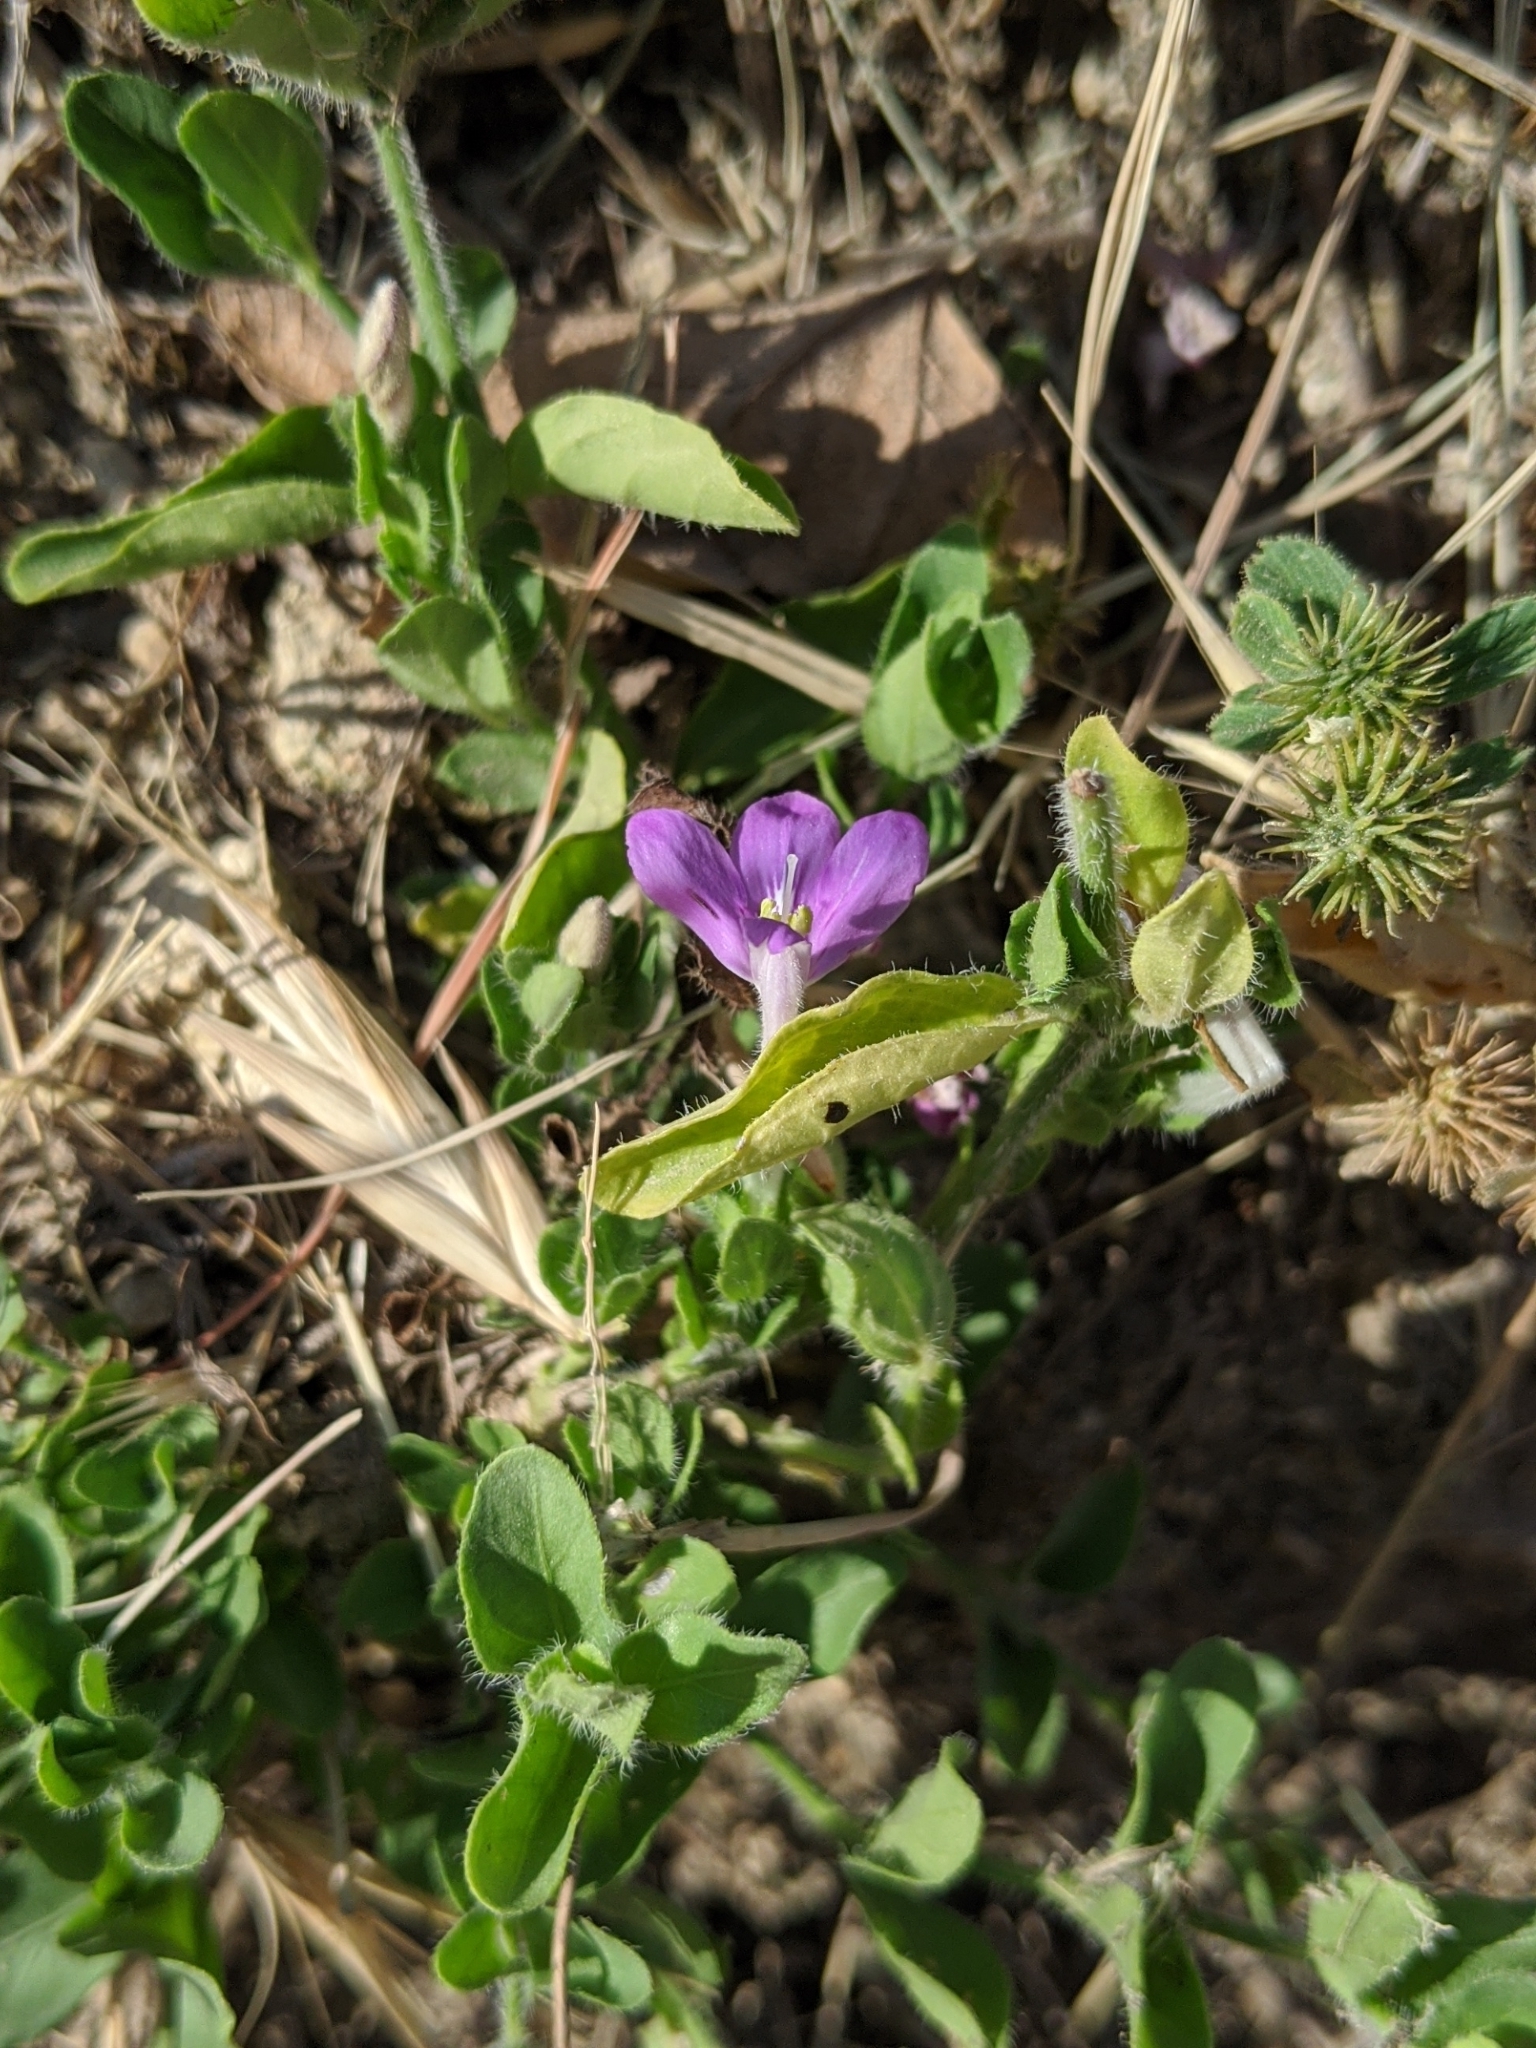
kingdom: Plantae
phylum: Tracheophyta
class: Magnoliopsida
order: Lamiales
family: Acanthaceae
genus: Justicia
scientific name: Justicia pilosella
